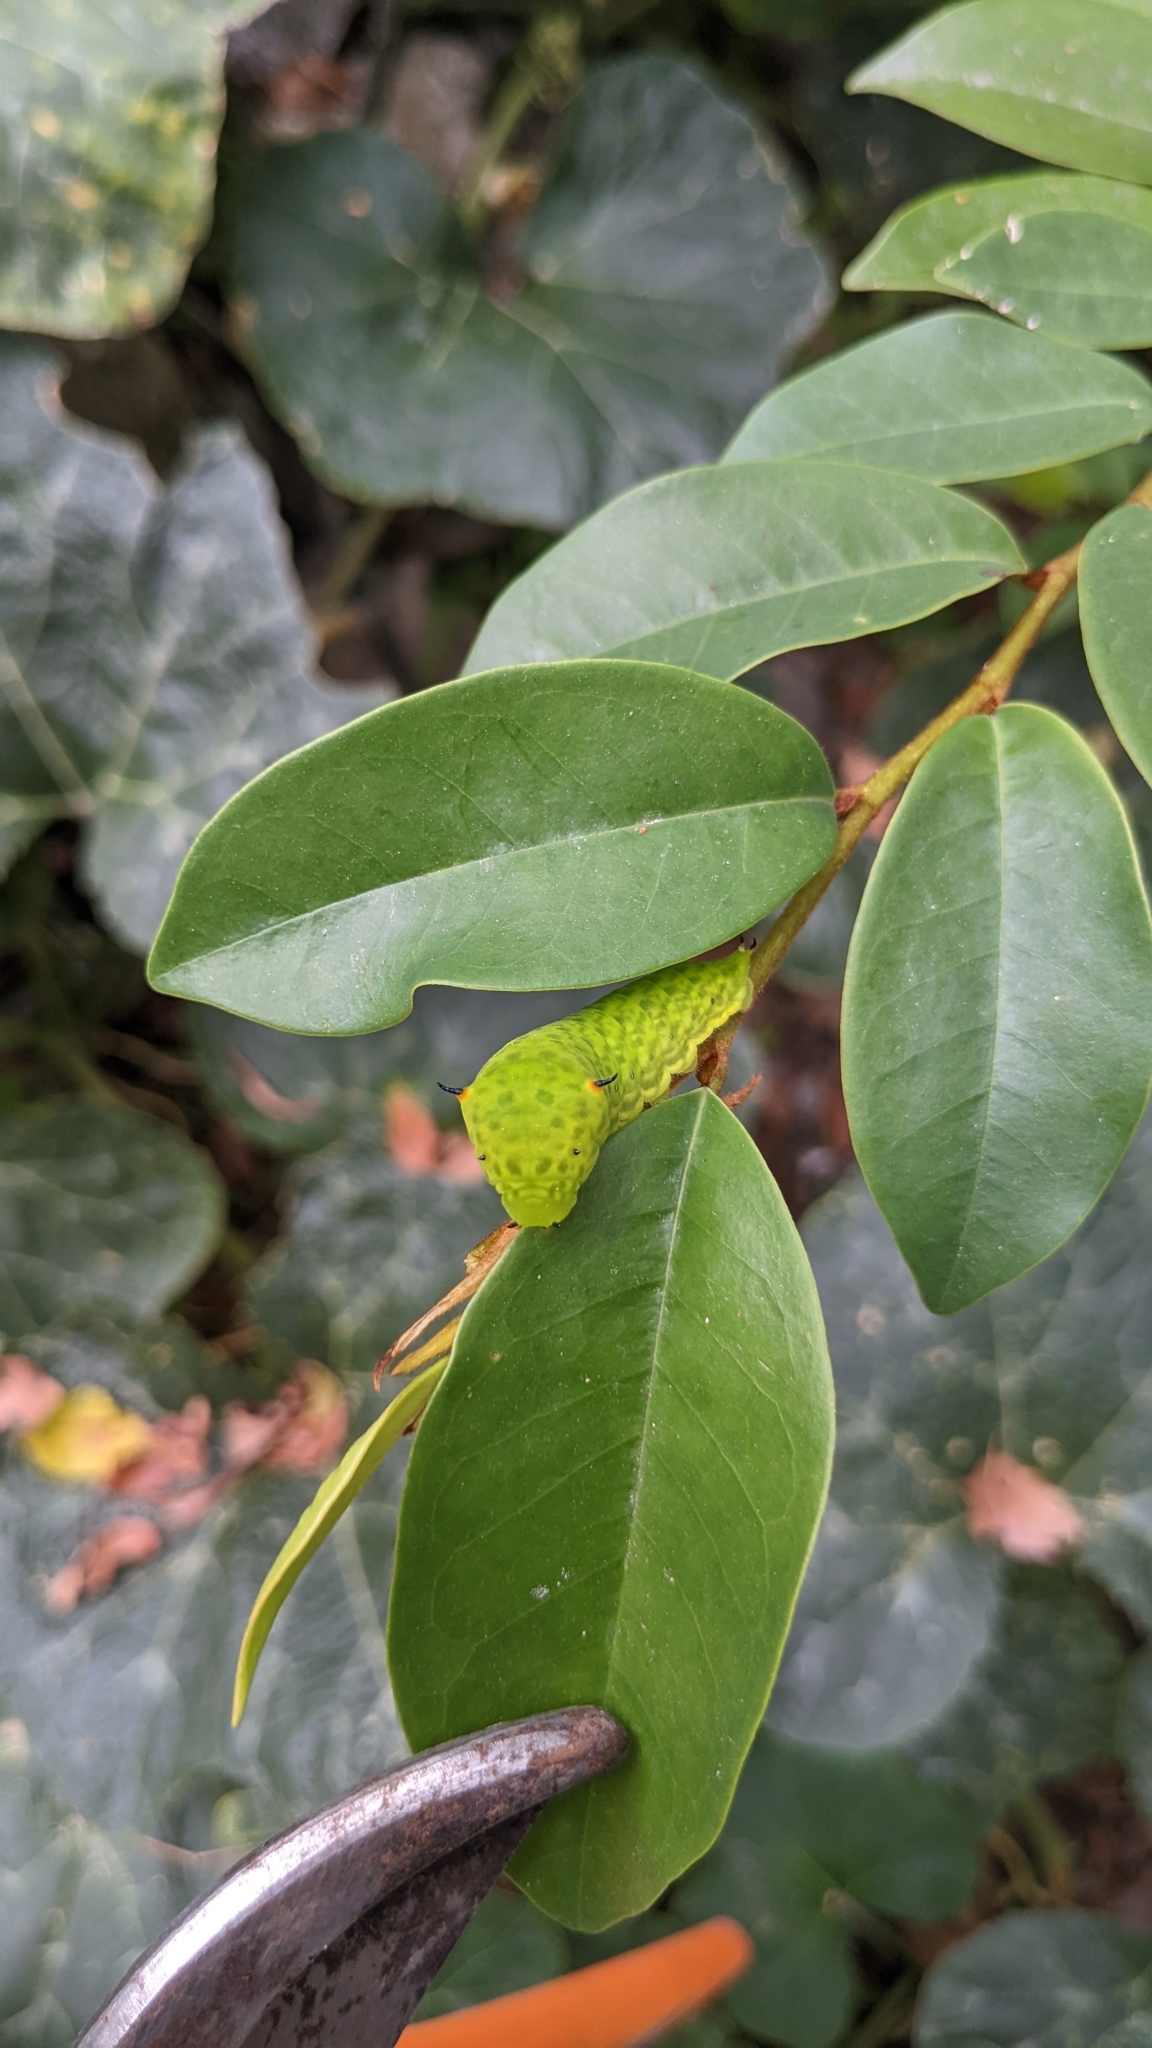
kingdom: Animalia
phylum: Arthropoda
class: Insecta
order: Lepidoptera
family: Papilionidae
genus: Graphium
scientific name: Graphium agamemnon
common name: Tailed jay
